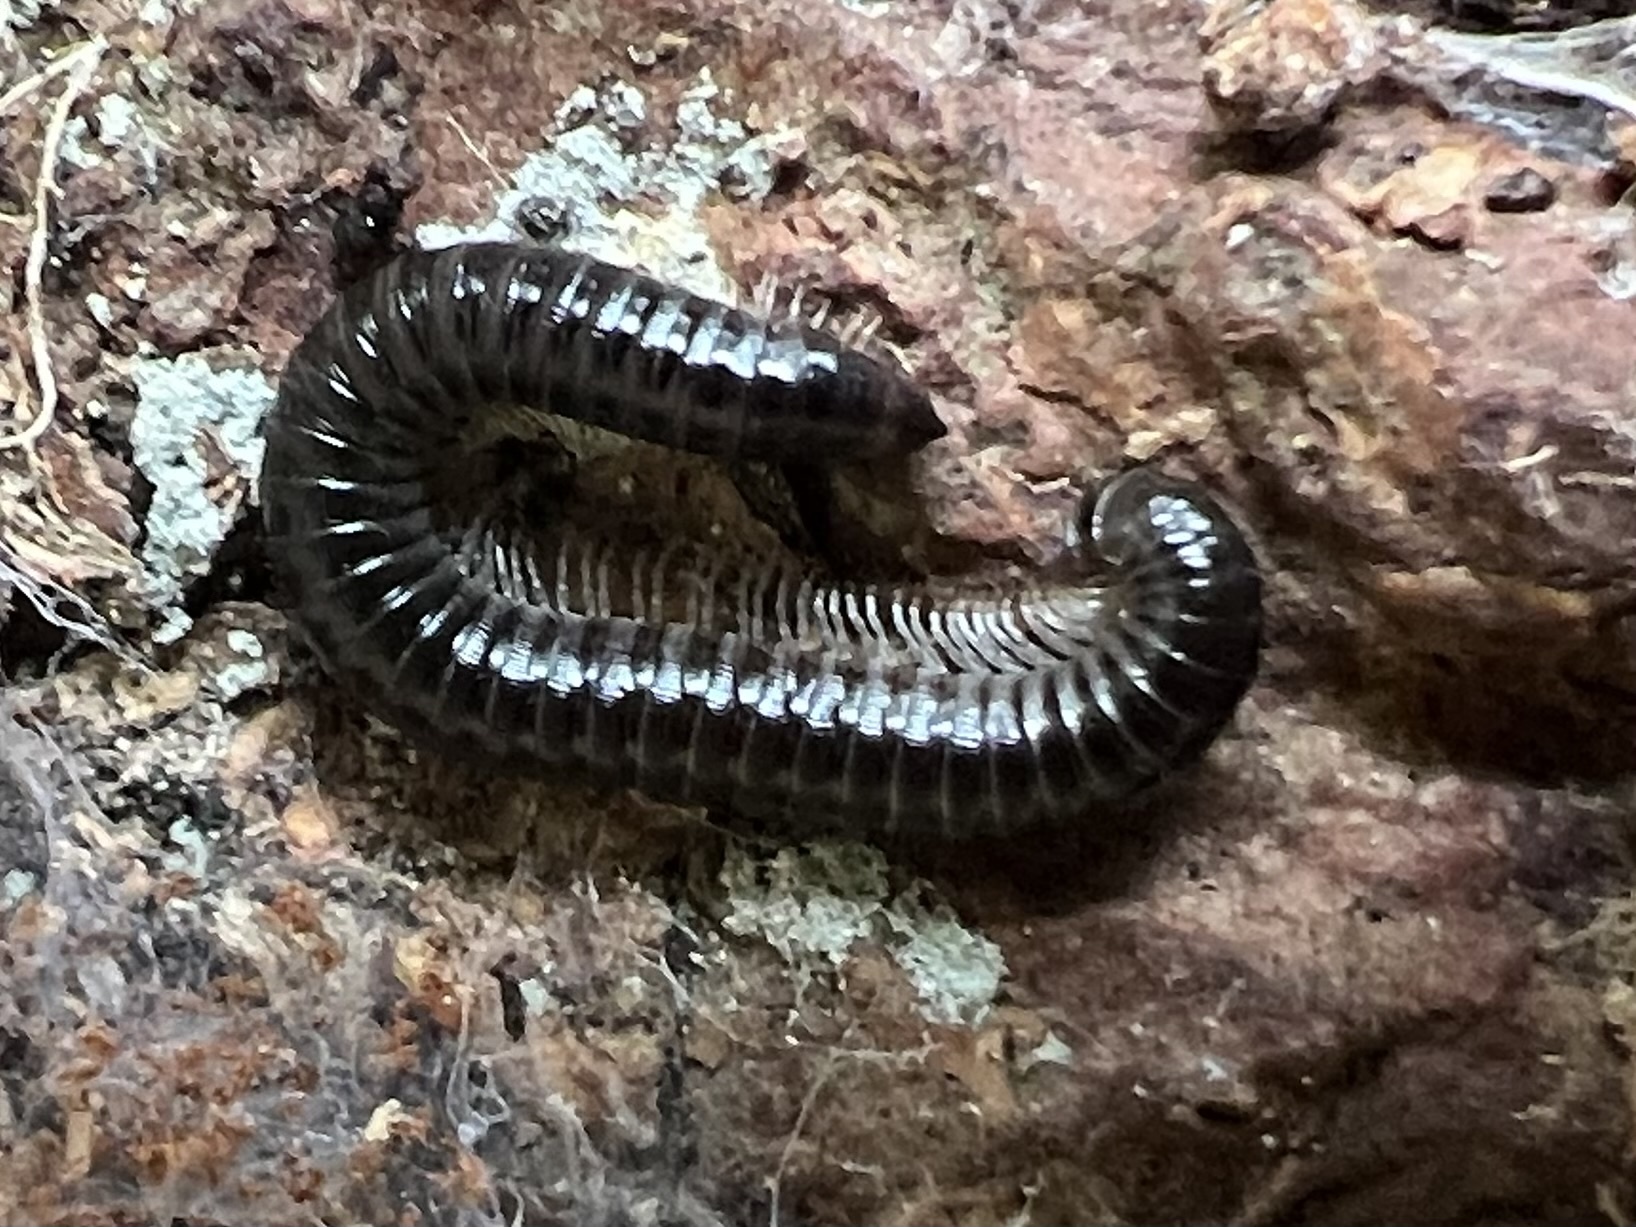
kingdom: Animalia
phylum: Arthropoda
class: Diplopoda
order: Julida
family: Julidae
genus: Tachypodoiulus
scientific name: Tachypodoiulus niger
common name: White-legged snake millipede
